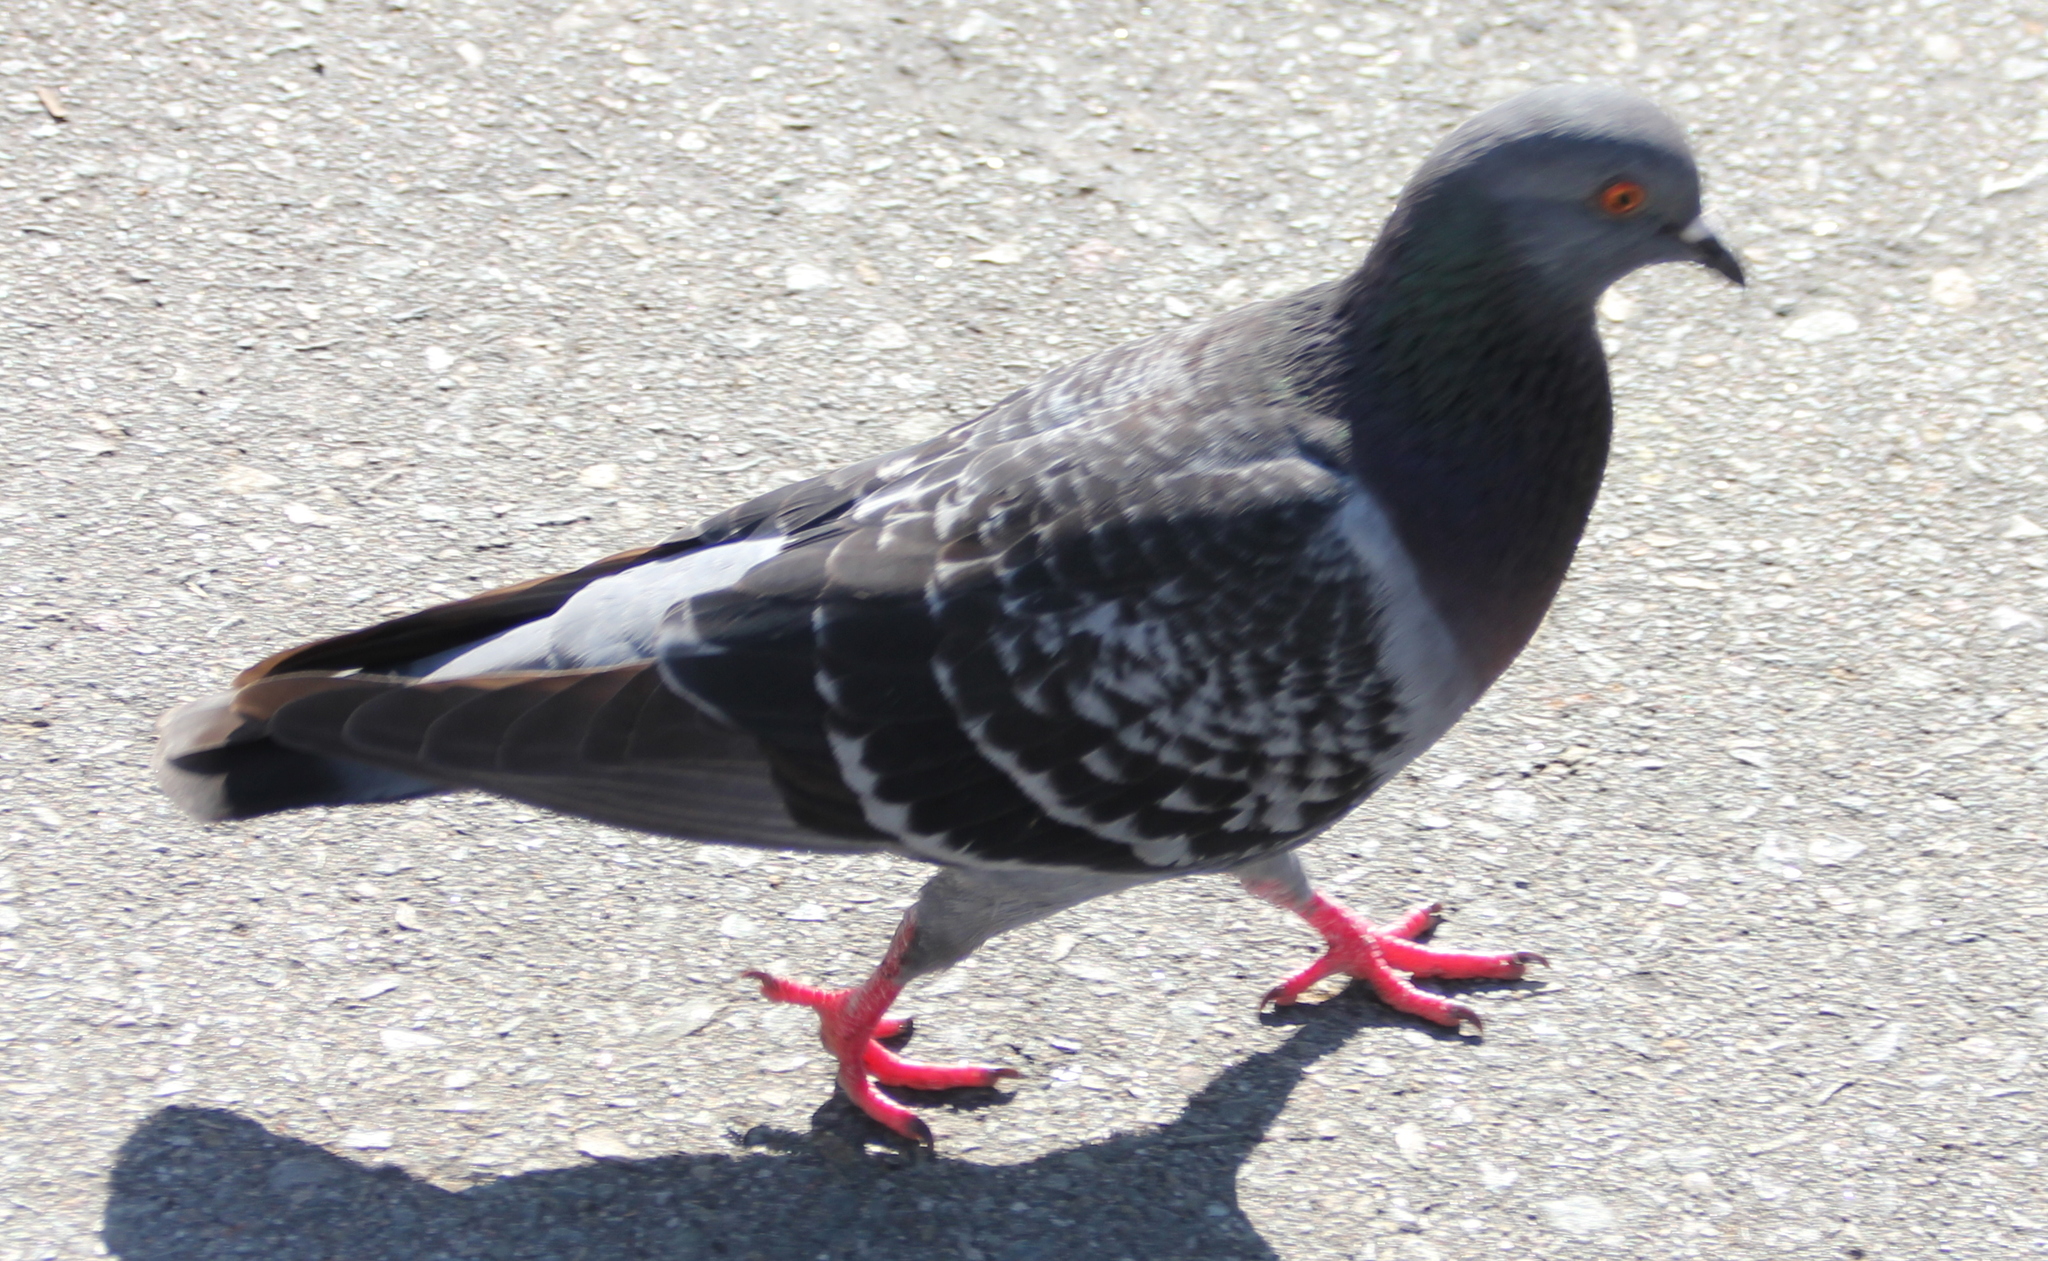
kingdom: Animalia
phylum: Chordata
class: Aves
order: Columbiformes
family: Columbidae
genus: Columba
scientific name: Columba livia
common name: Rock pigeon
